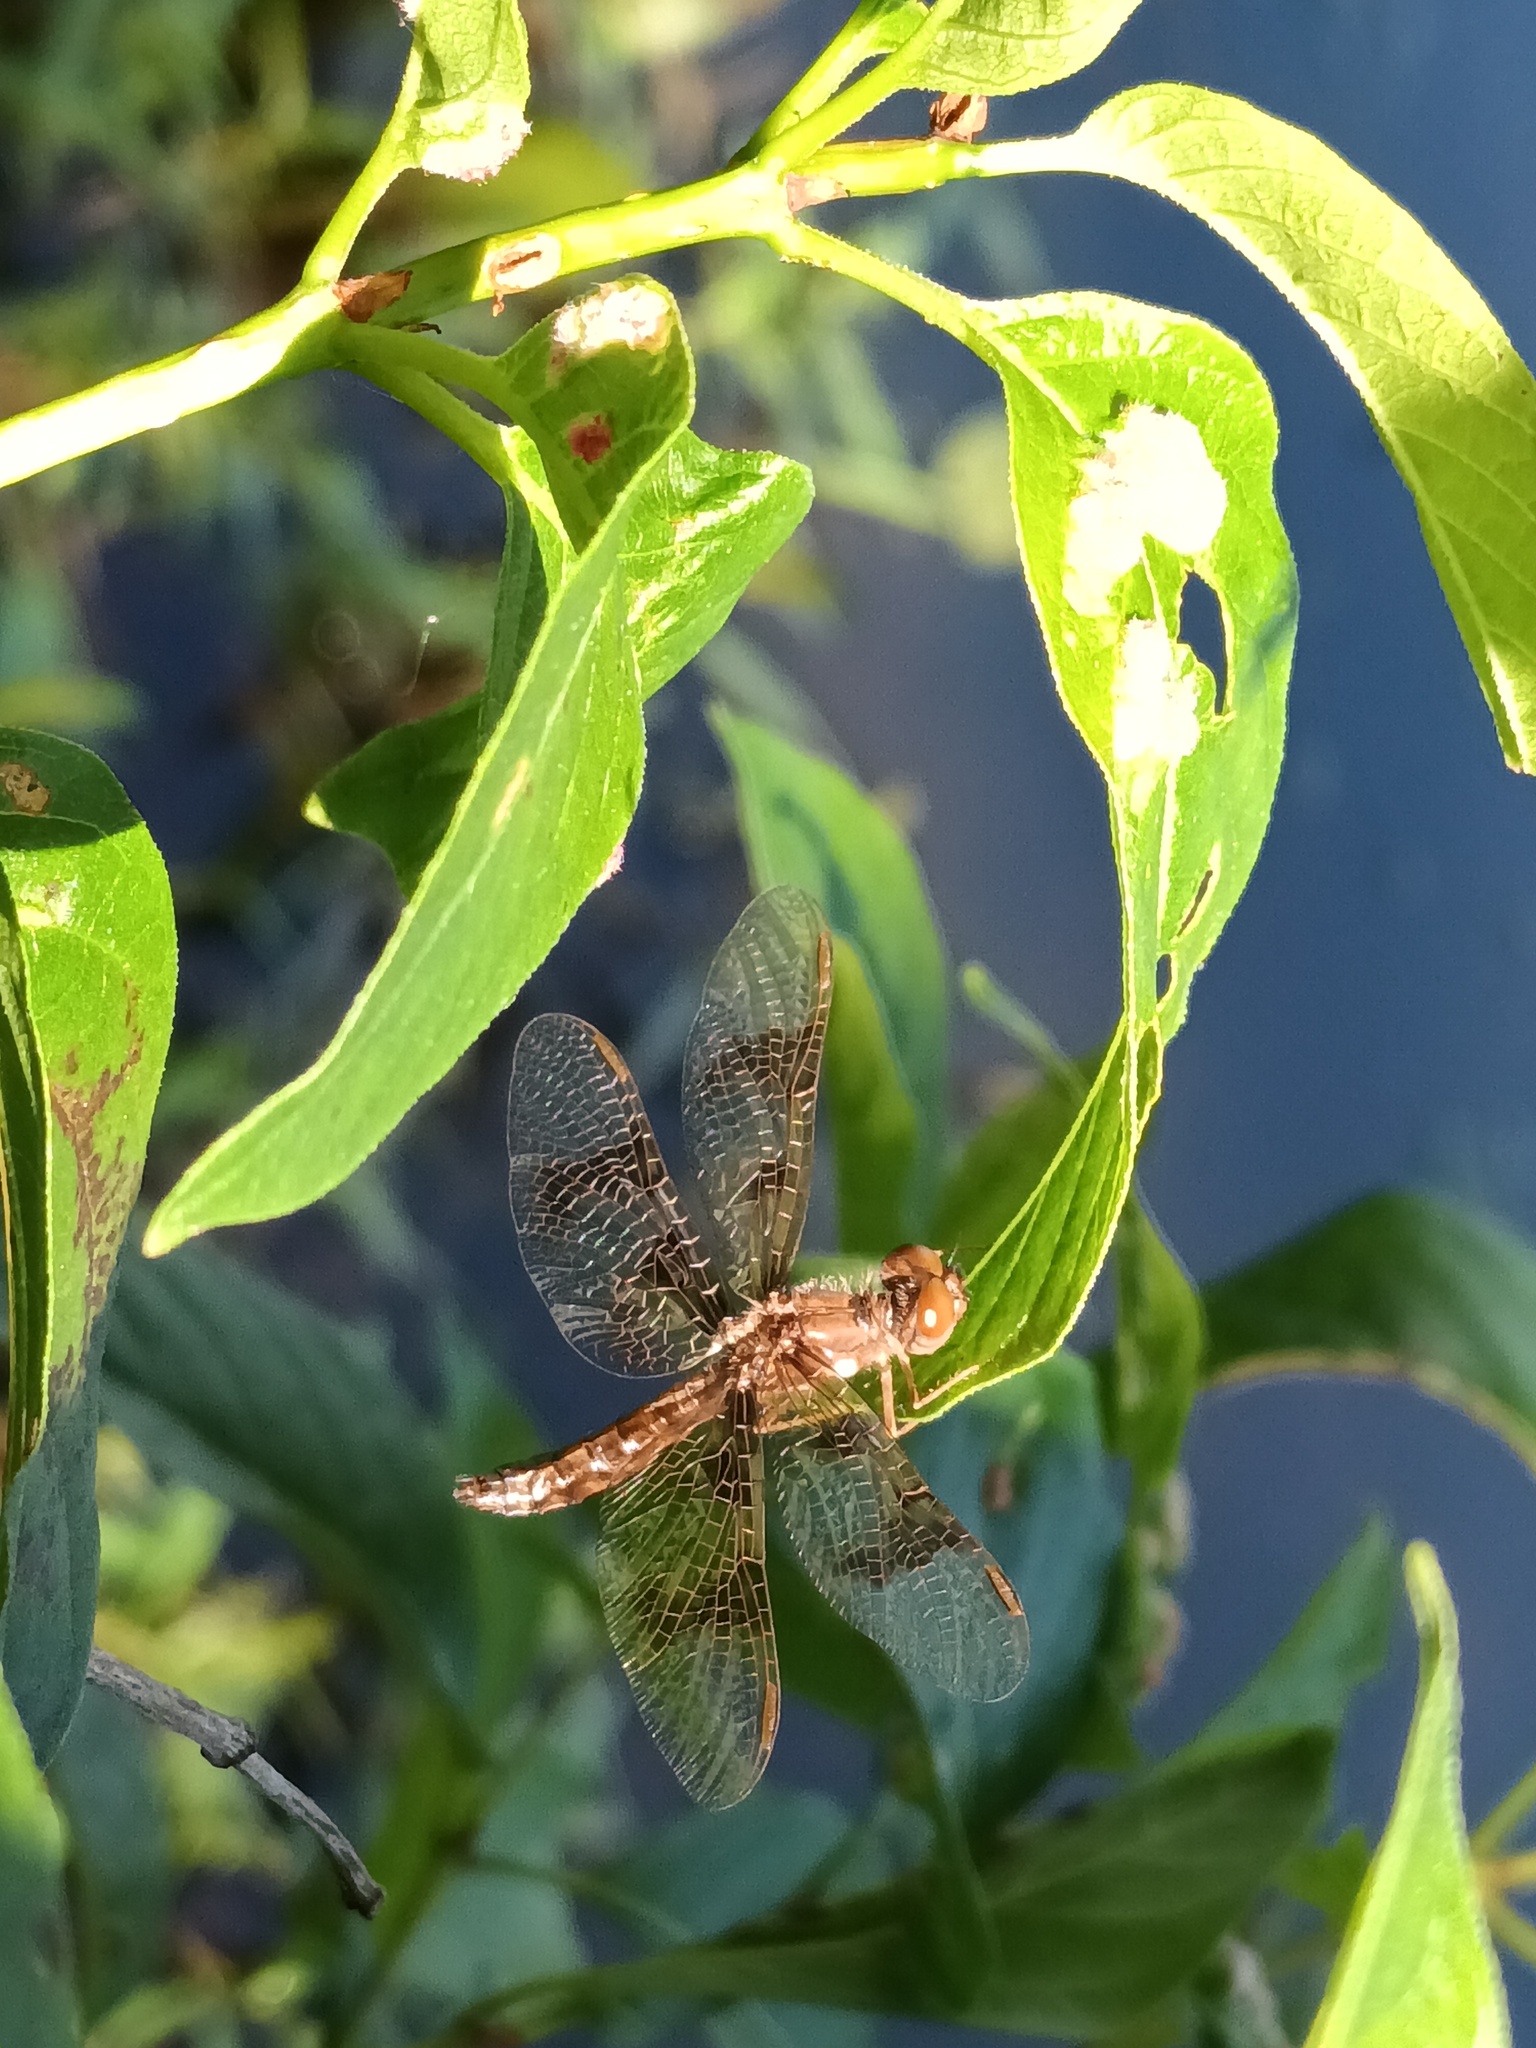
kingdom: Animalia
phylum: Arthropoda
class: Insecta
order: Odonata
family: Libellulidae
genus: Perithemis
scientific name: Perithemis tenera
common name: Eastern amberwing
